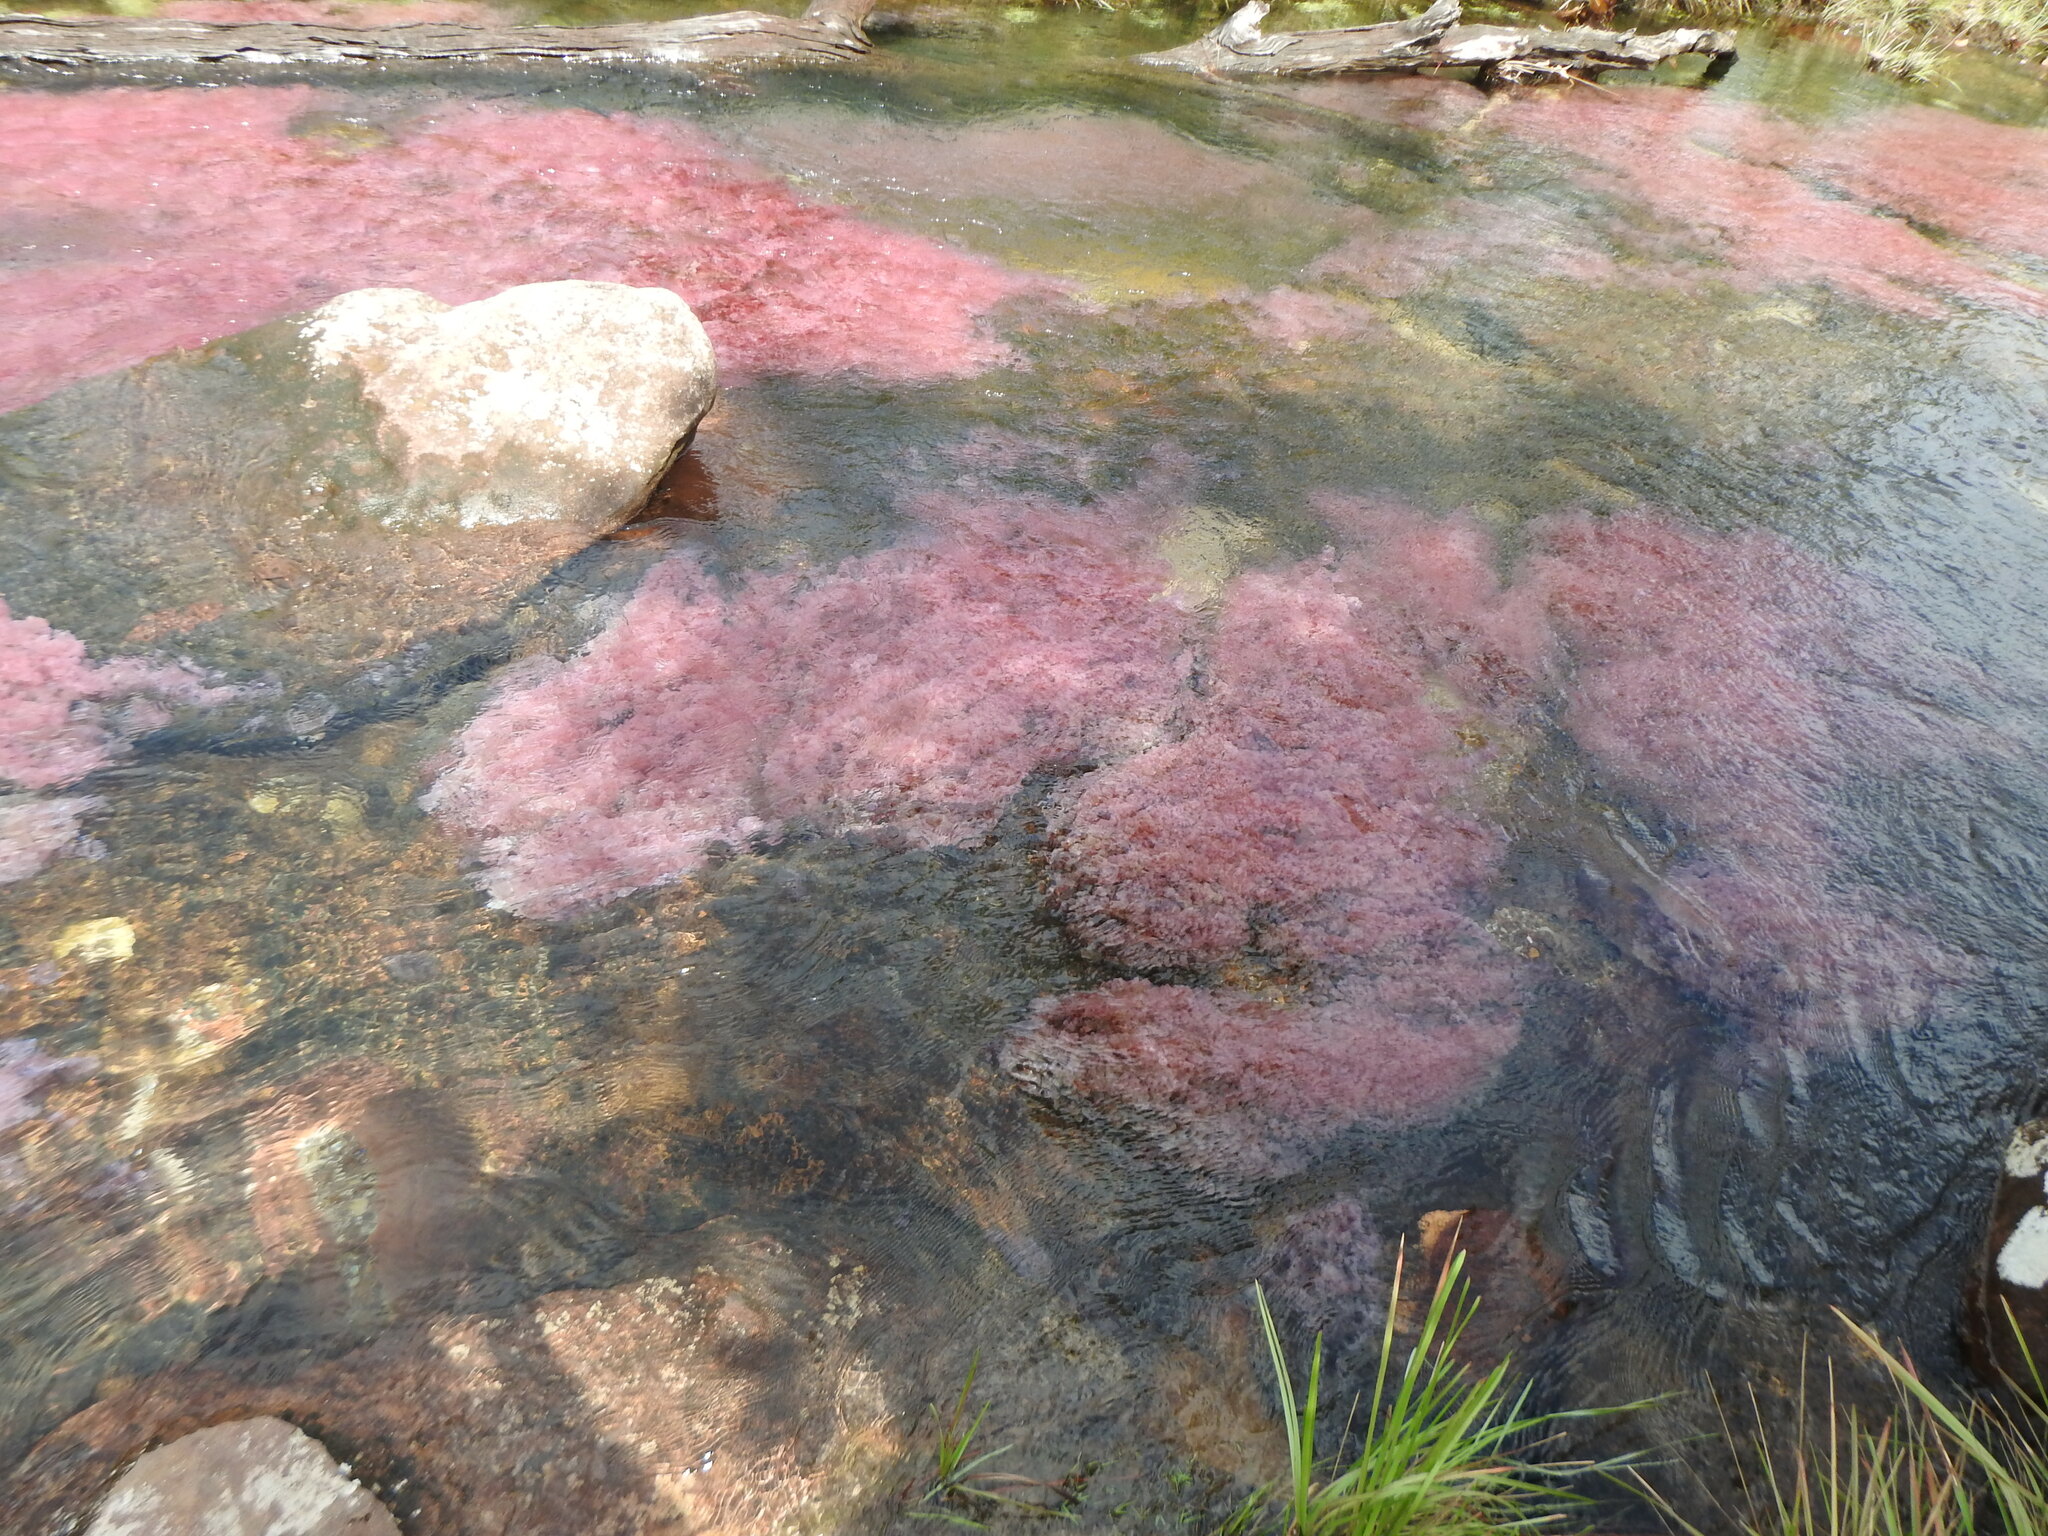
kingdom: Plantae
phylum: Tracheophyta
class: Magnoliopsida
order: Malpighiales
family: Podostemaceae
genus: Rhyncholacis
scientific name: Rhyncholacis clavigera
